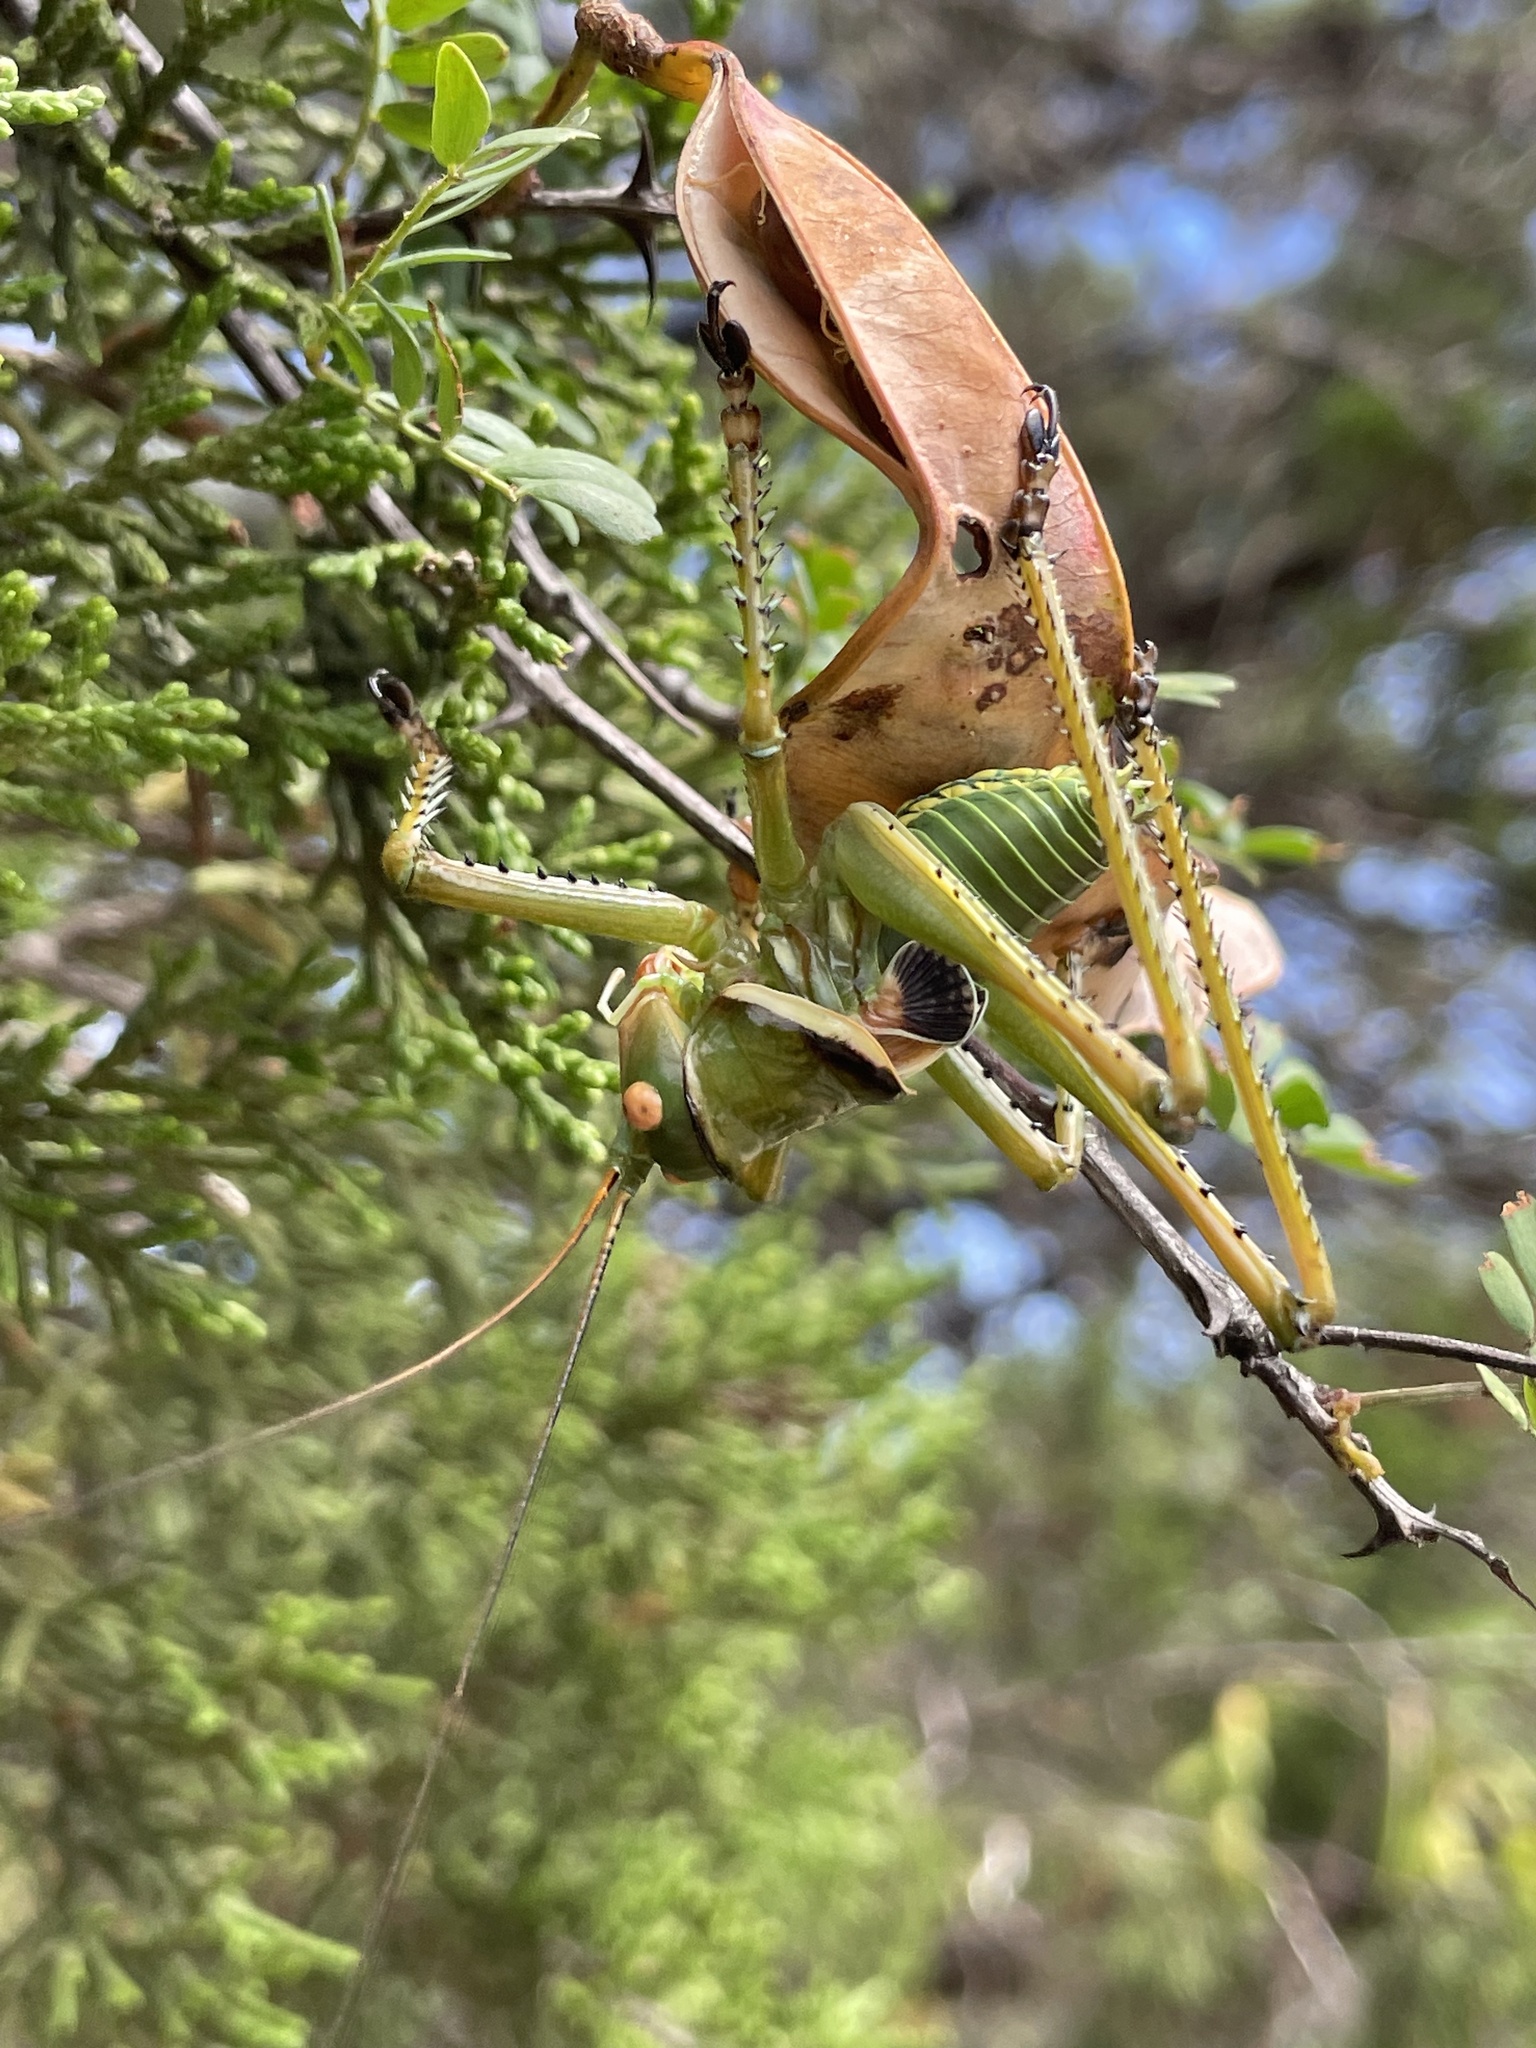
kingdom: Animalia
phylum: Arthropoda
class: Insecta
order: Orthoptera
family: Tettigoniidae
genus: Neobarrettia
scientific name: Neobarrettia spinosa
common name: Greater arid-land katydid
